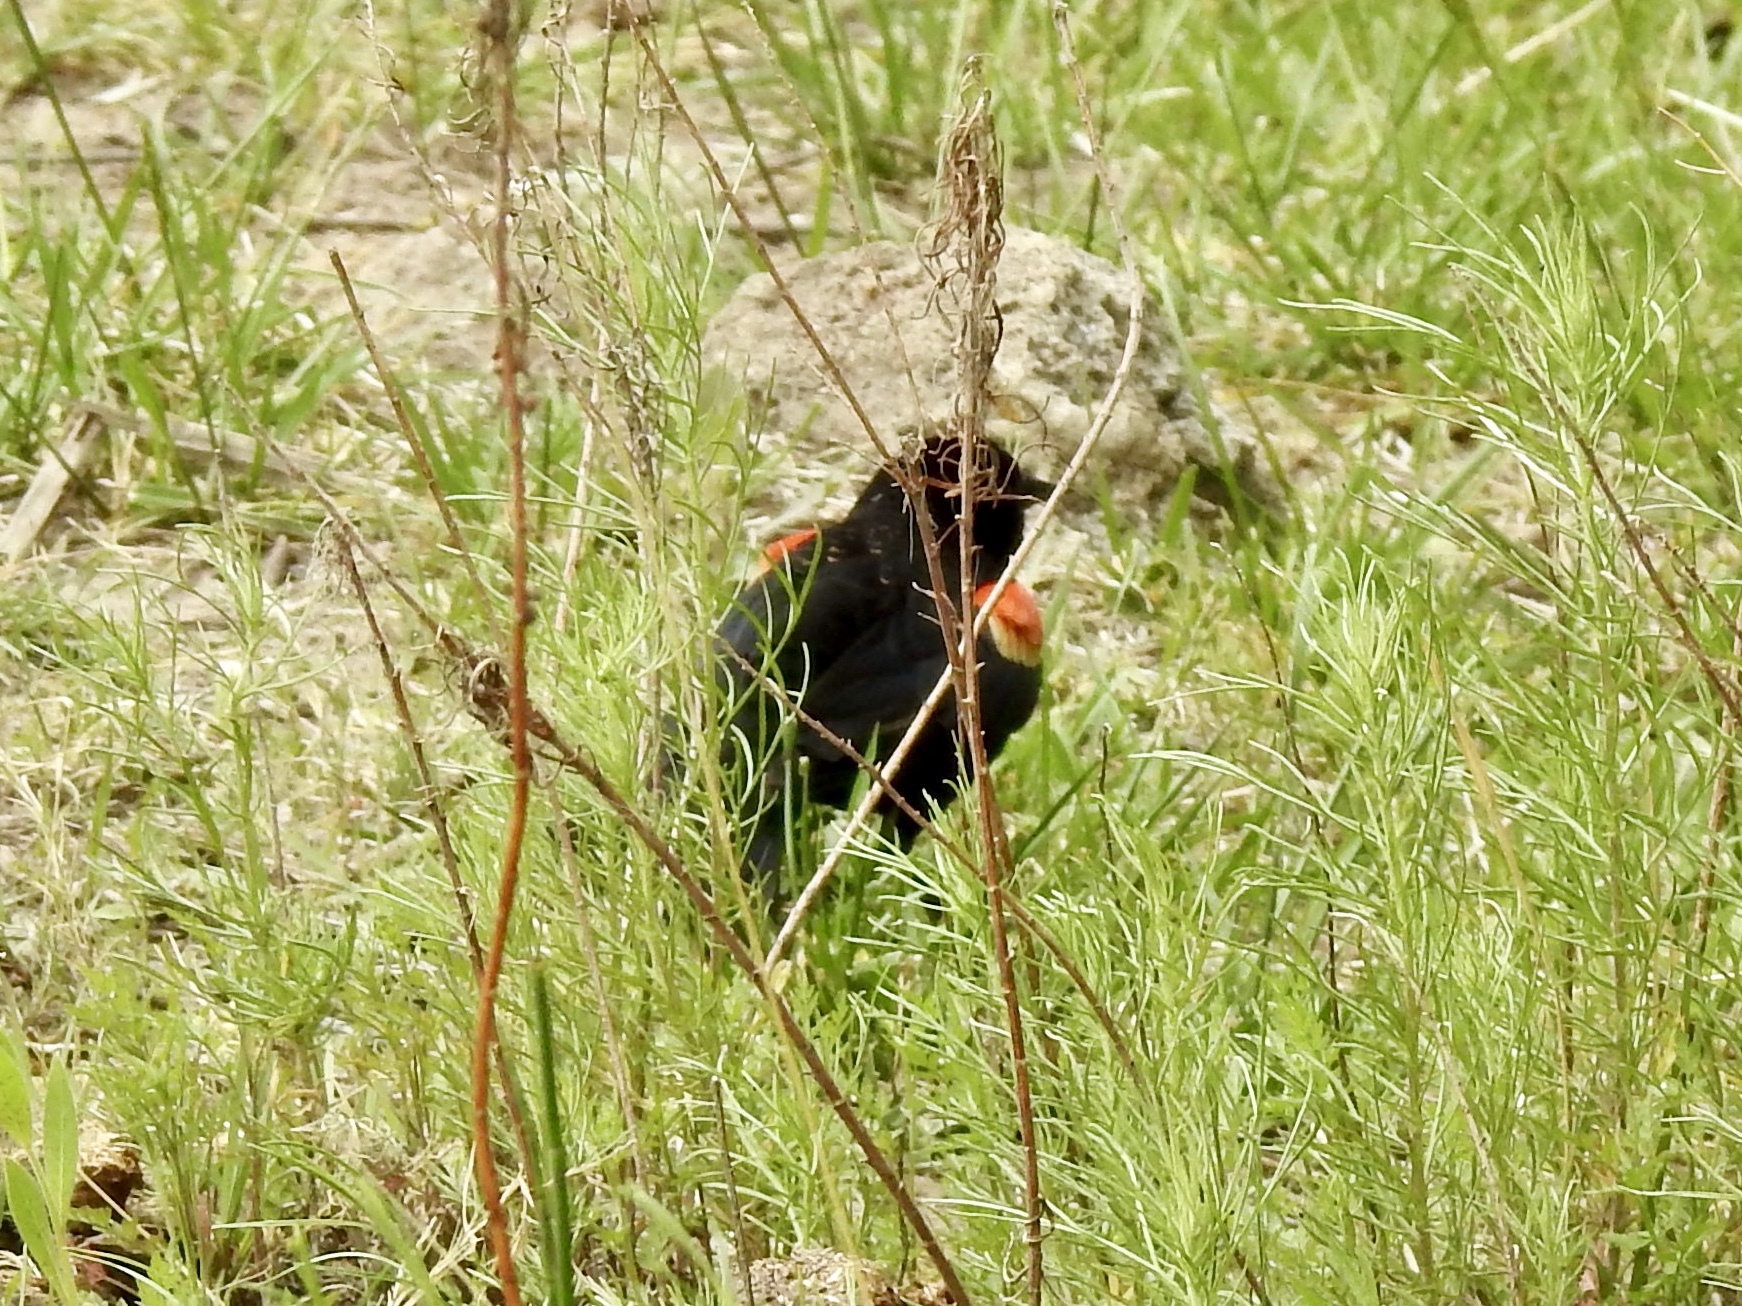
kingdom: Animalia
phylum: Chordata
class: Aves
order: Passeriformes
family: Icteridae
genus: Agelaius
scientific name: Agelaius phoeniceus
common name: Red-winged blackbird
